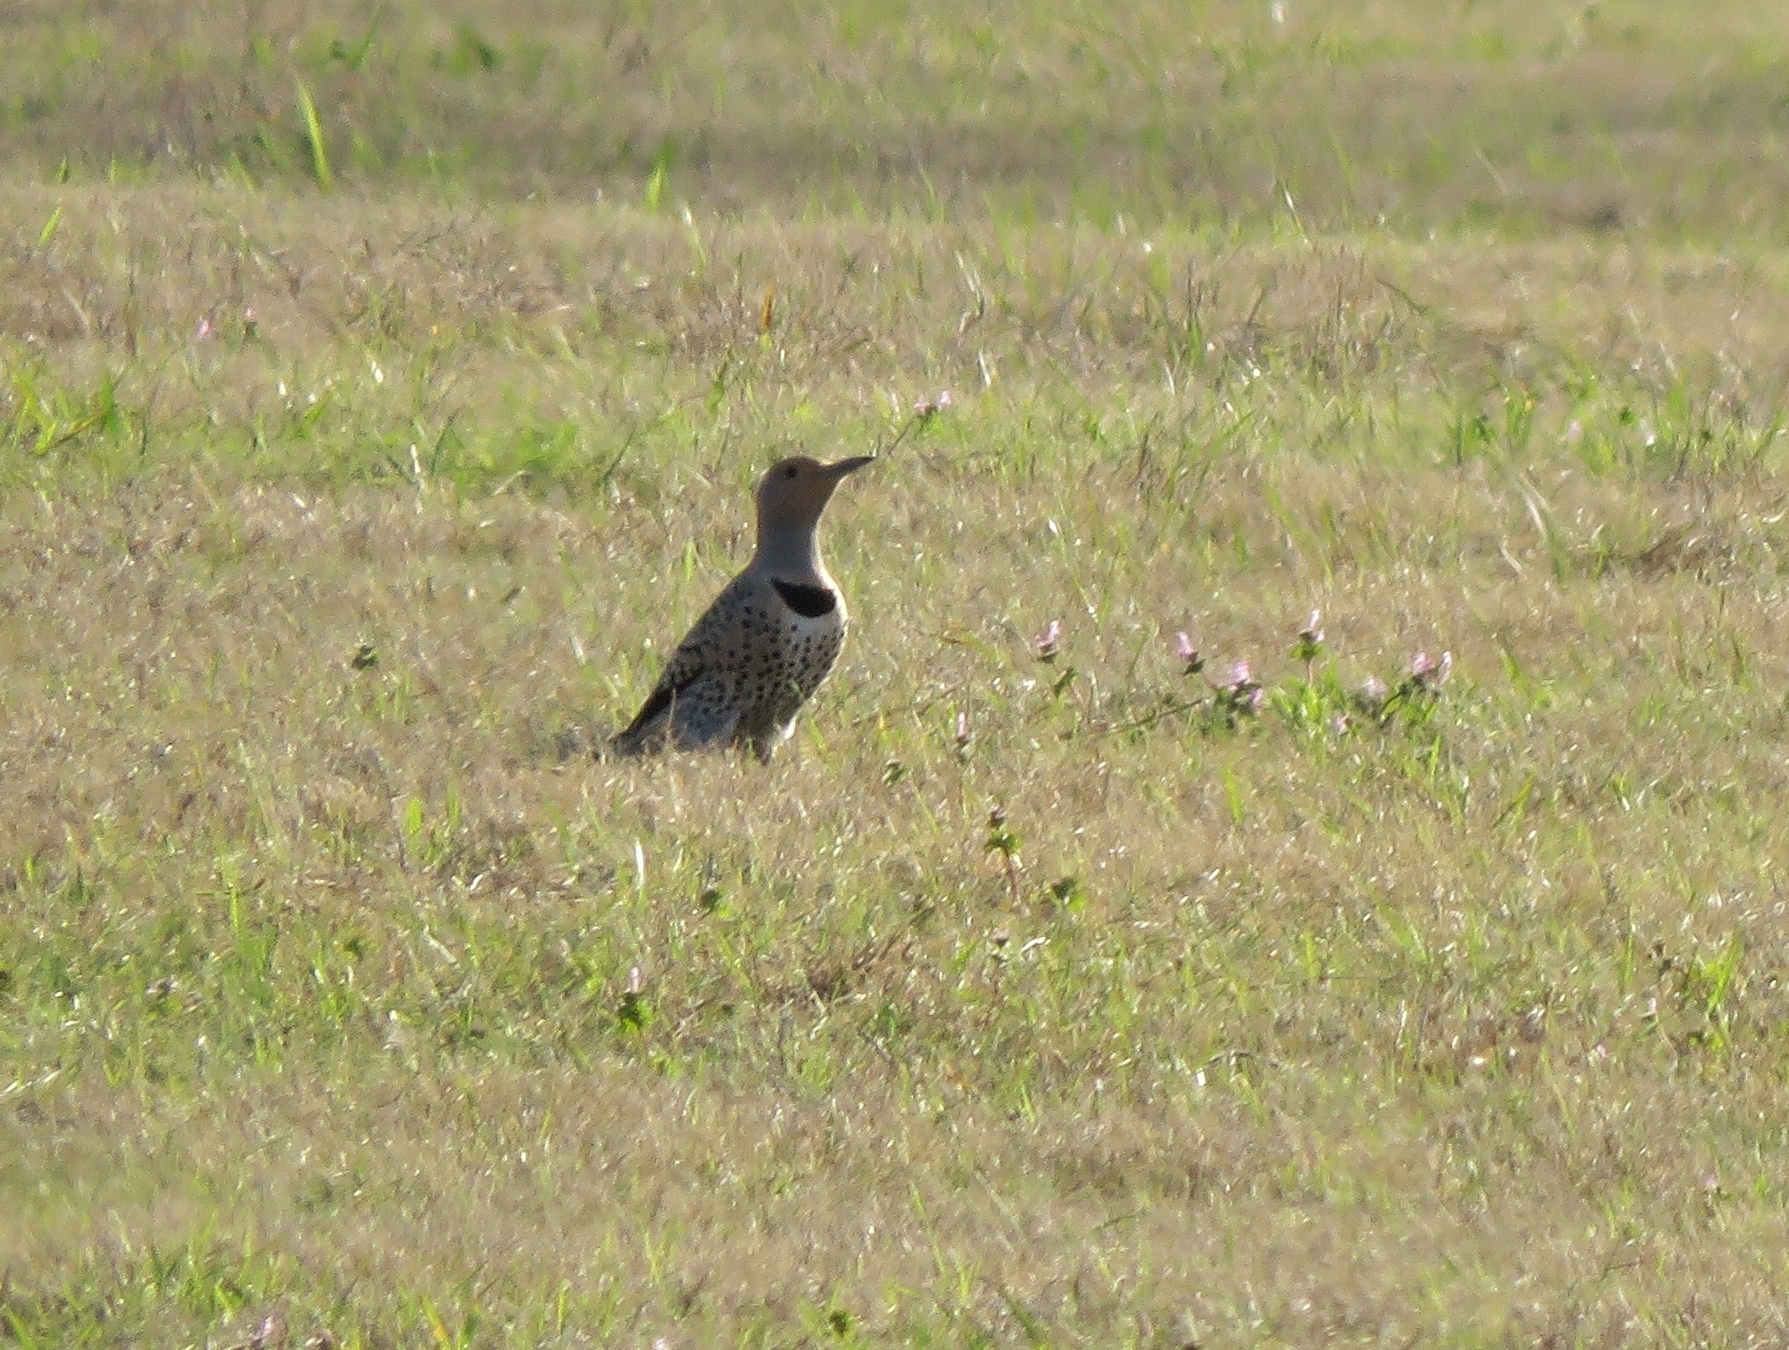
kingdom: Animalia
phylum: Chordata
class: Aves
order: Piciformes
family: Picidae
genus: Colaptes
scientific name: Colaptes auratus
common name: Northern flicker
